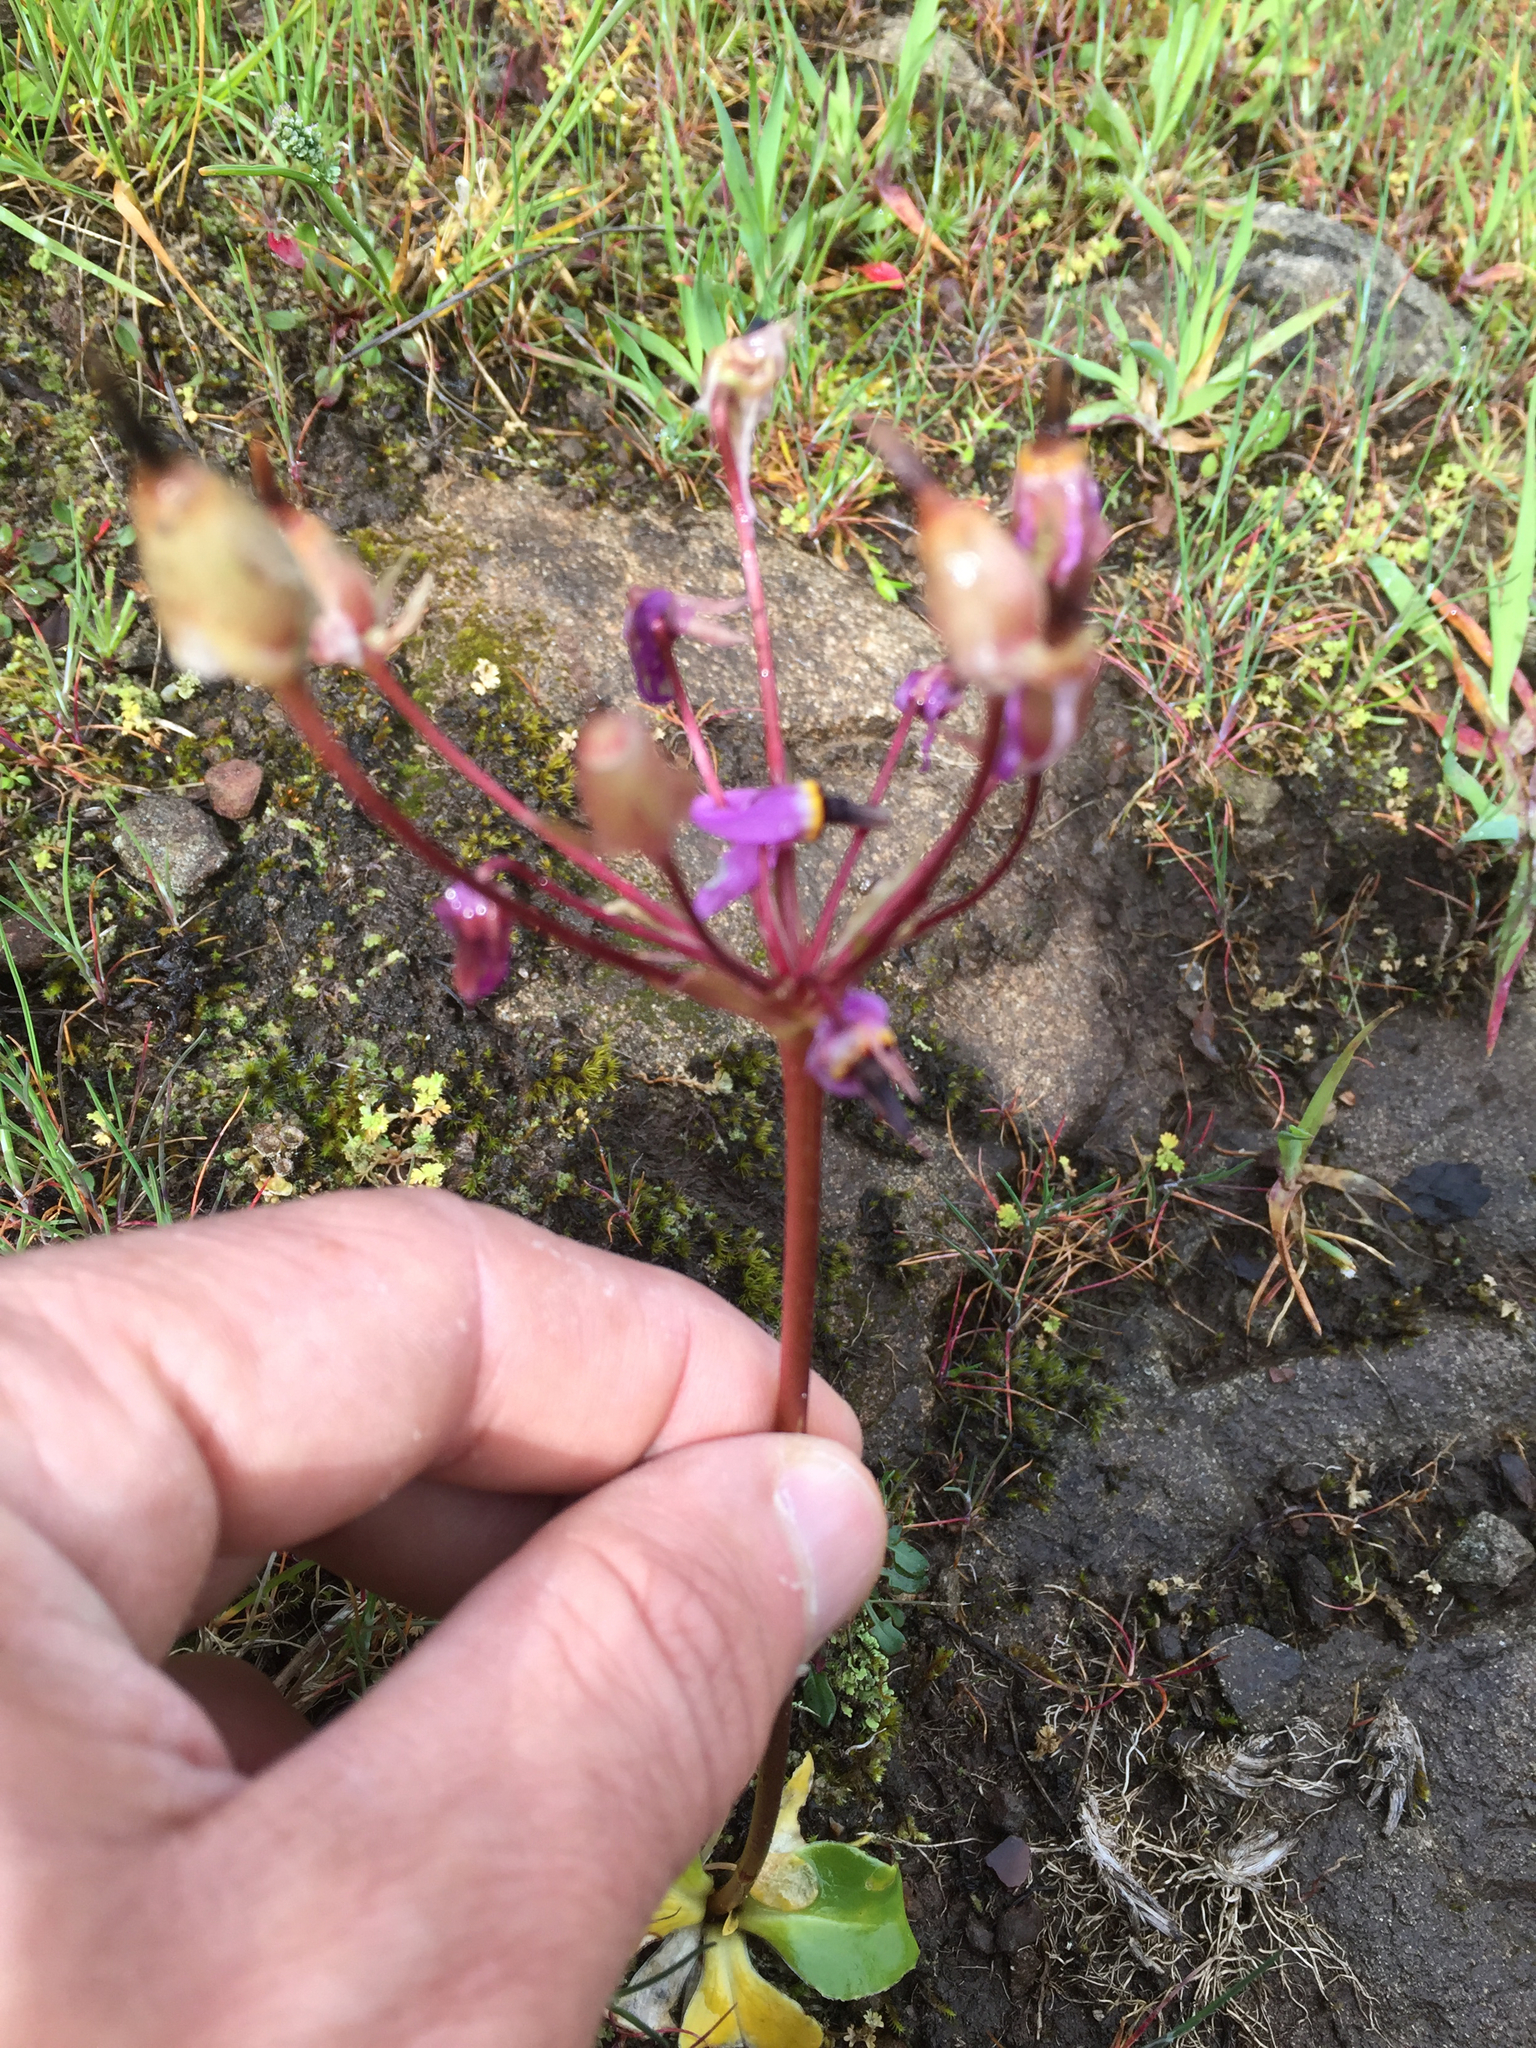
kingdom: Plantae
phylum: Tracheophyta
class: Magnoliopsida
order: Ericales
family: Primulaceae
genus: Dodecatheon
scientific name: Dodecatheon hendersonii
